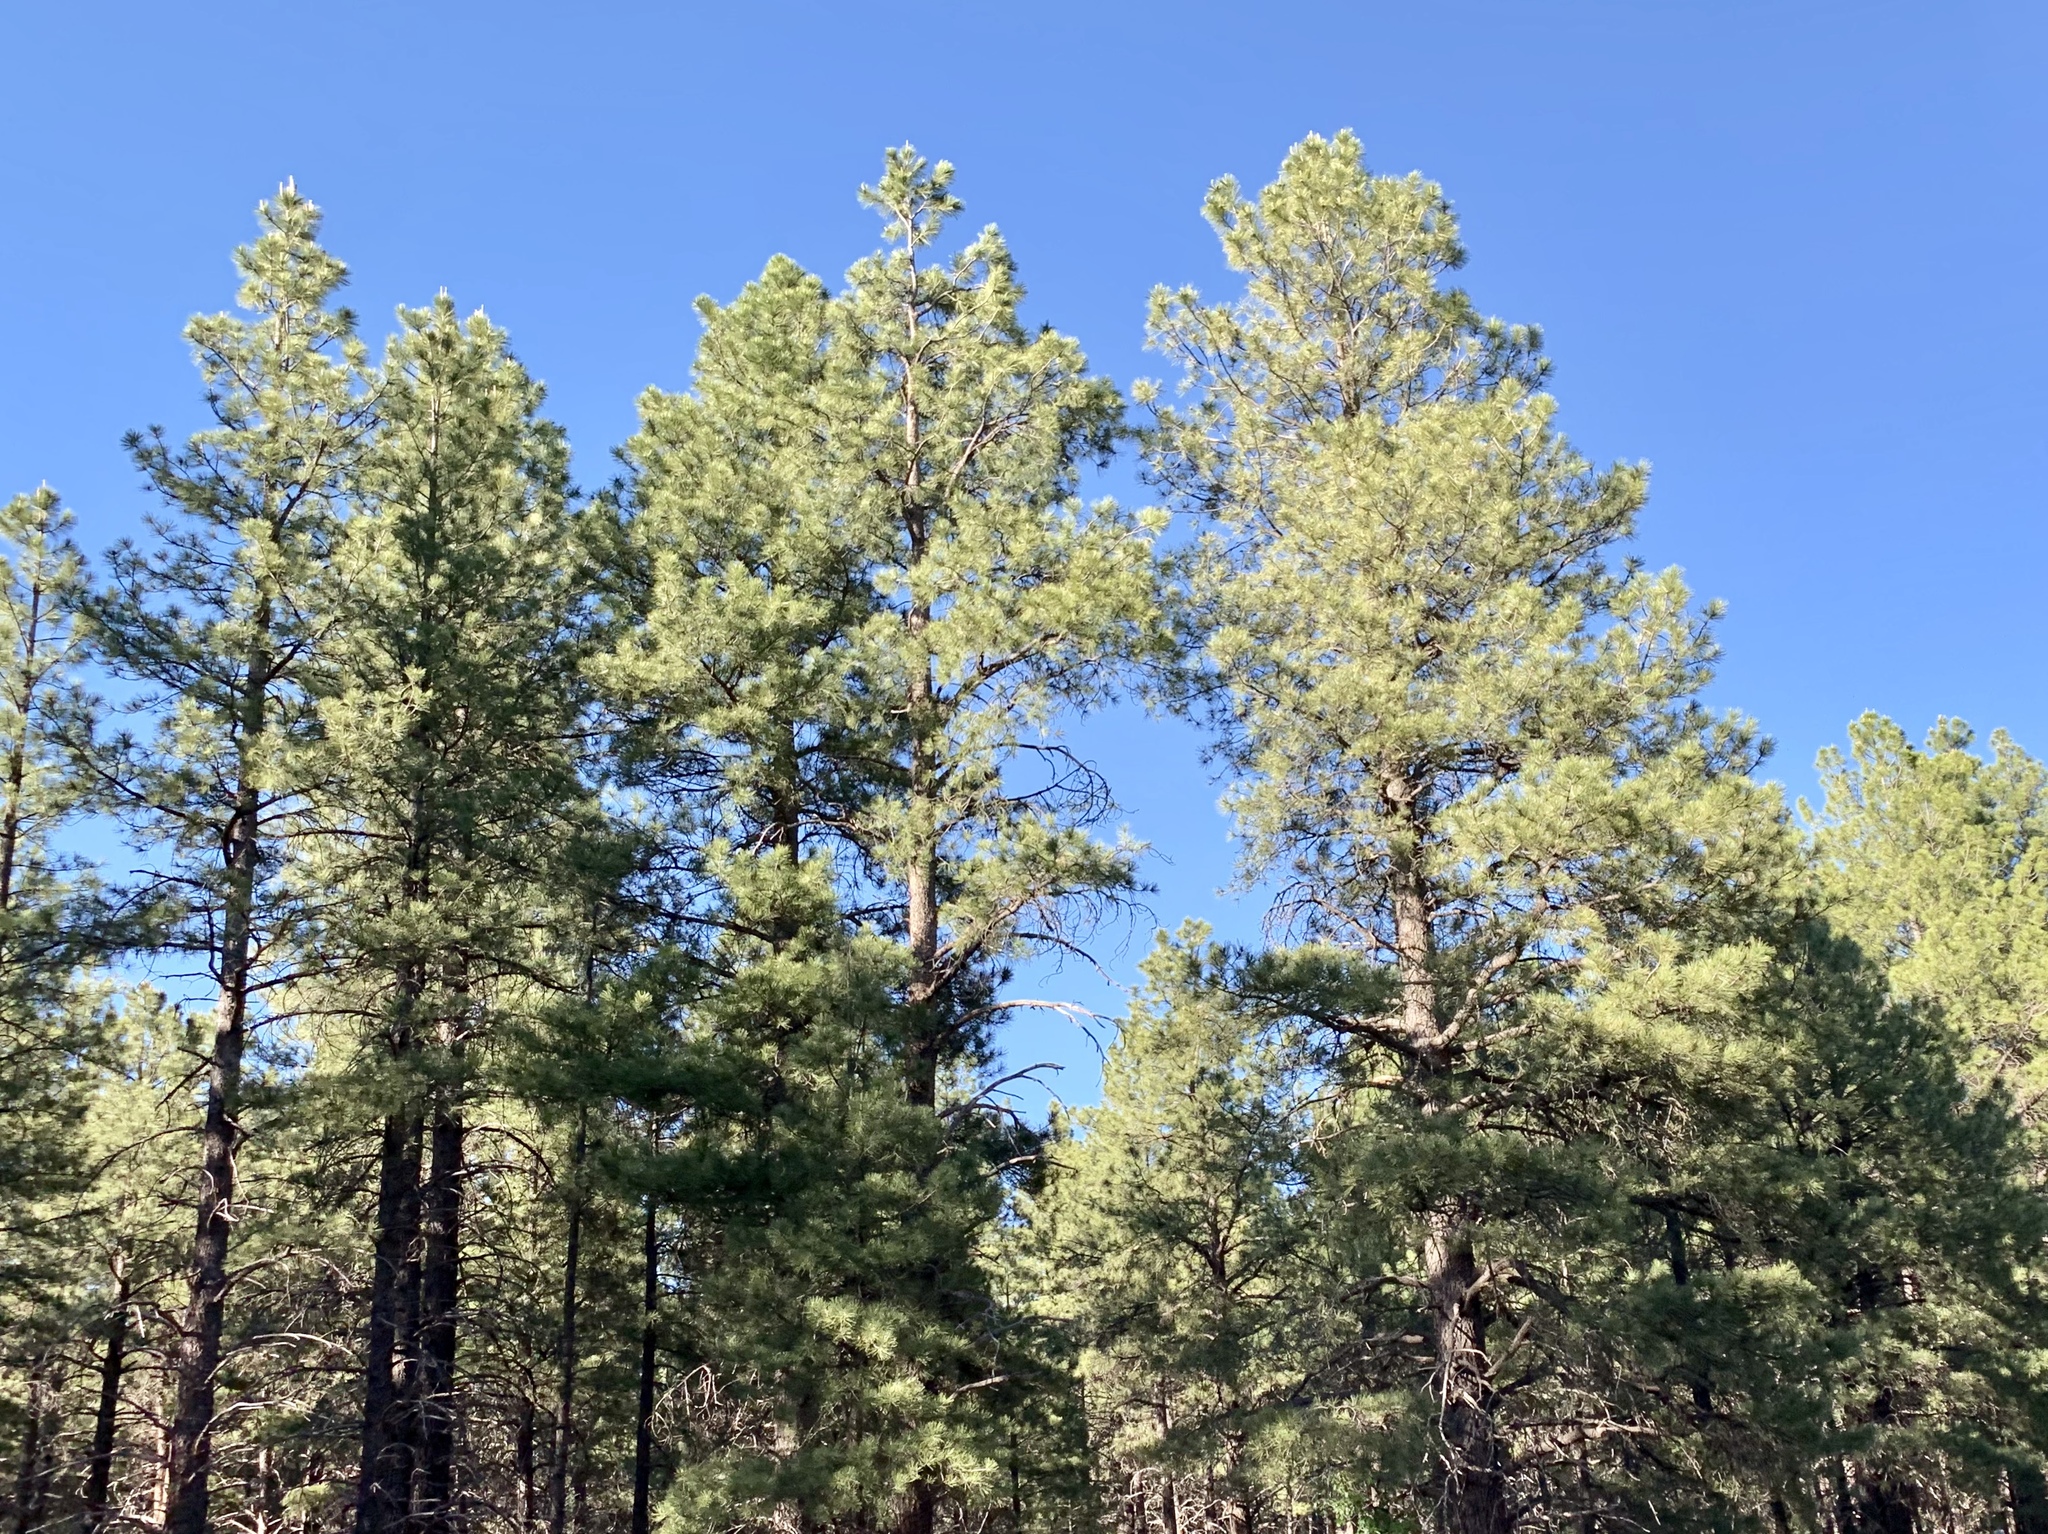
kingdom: Plantae
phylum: Tracheophyta
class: Pinopsida
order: Pinales
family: Pinaceae
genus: Pinus
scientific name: Pinus ponderosa
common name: Western yellow-pine
